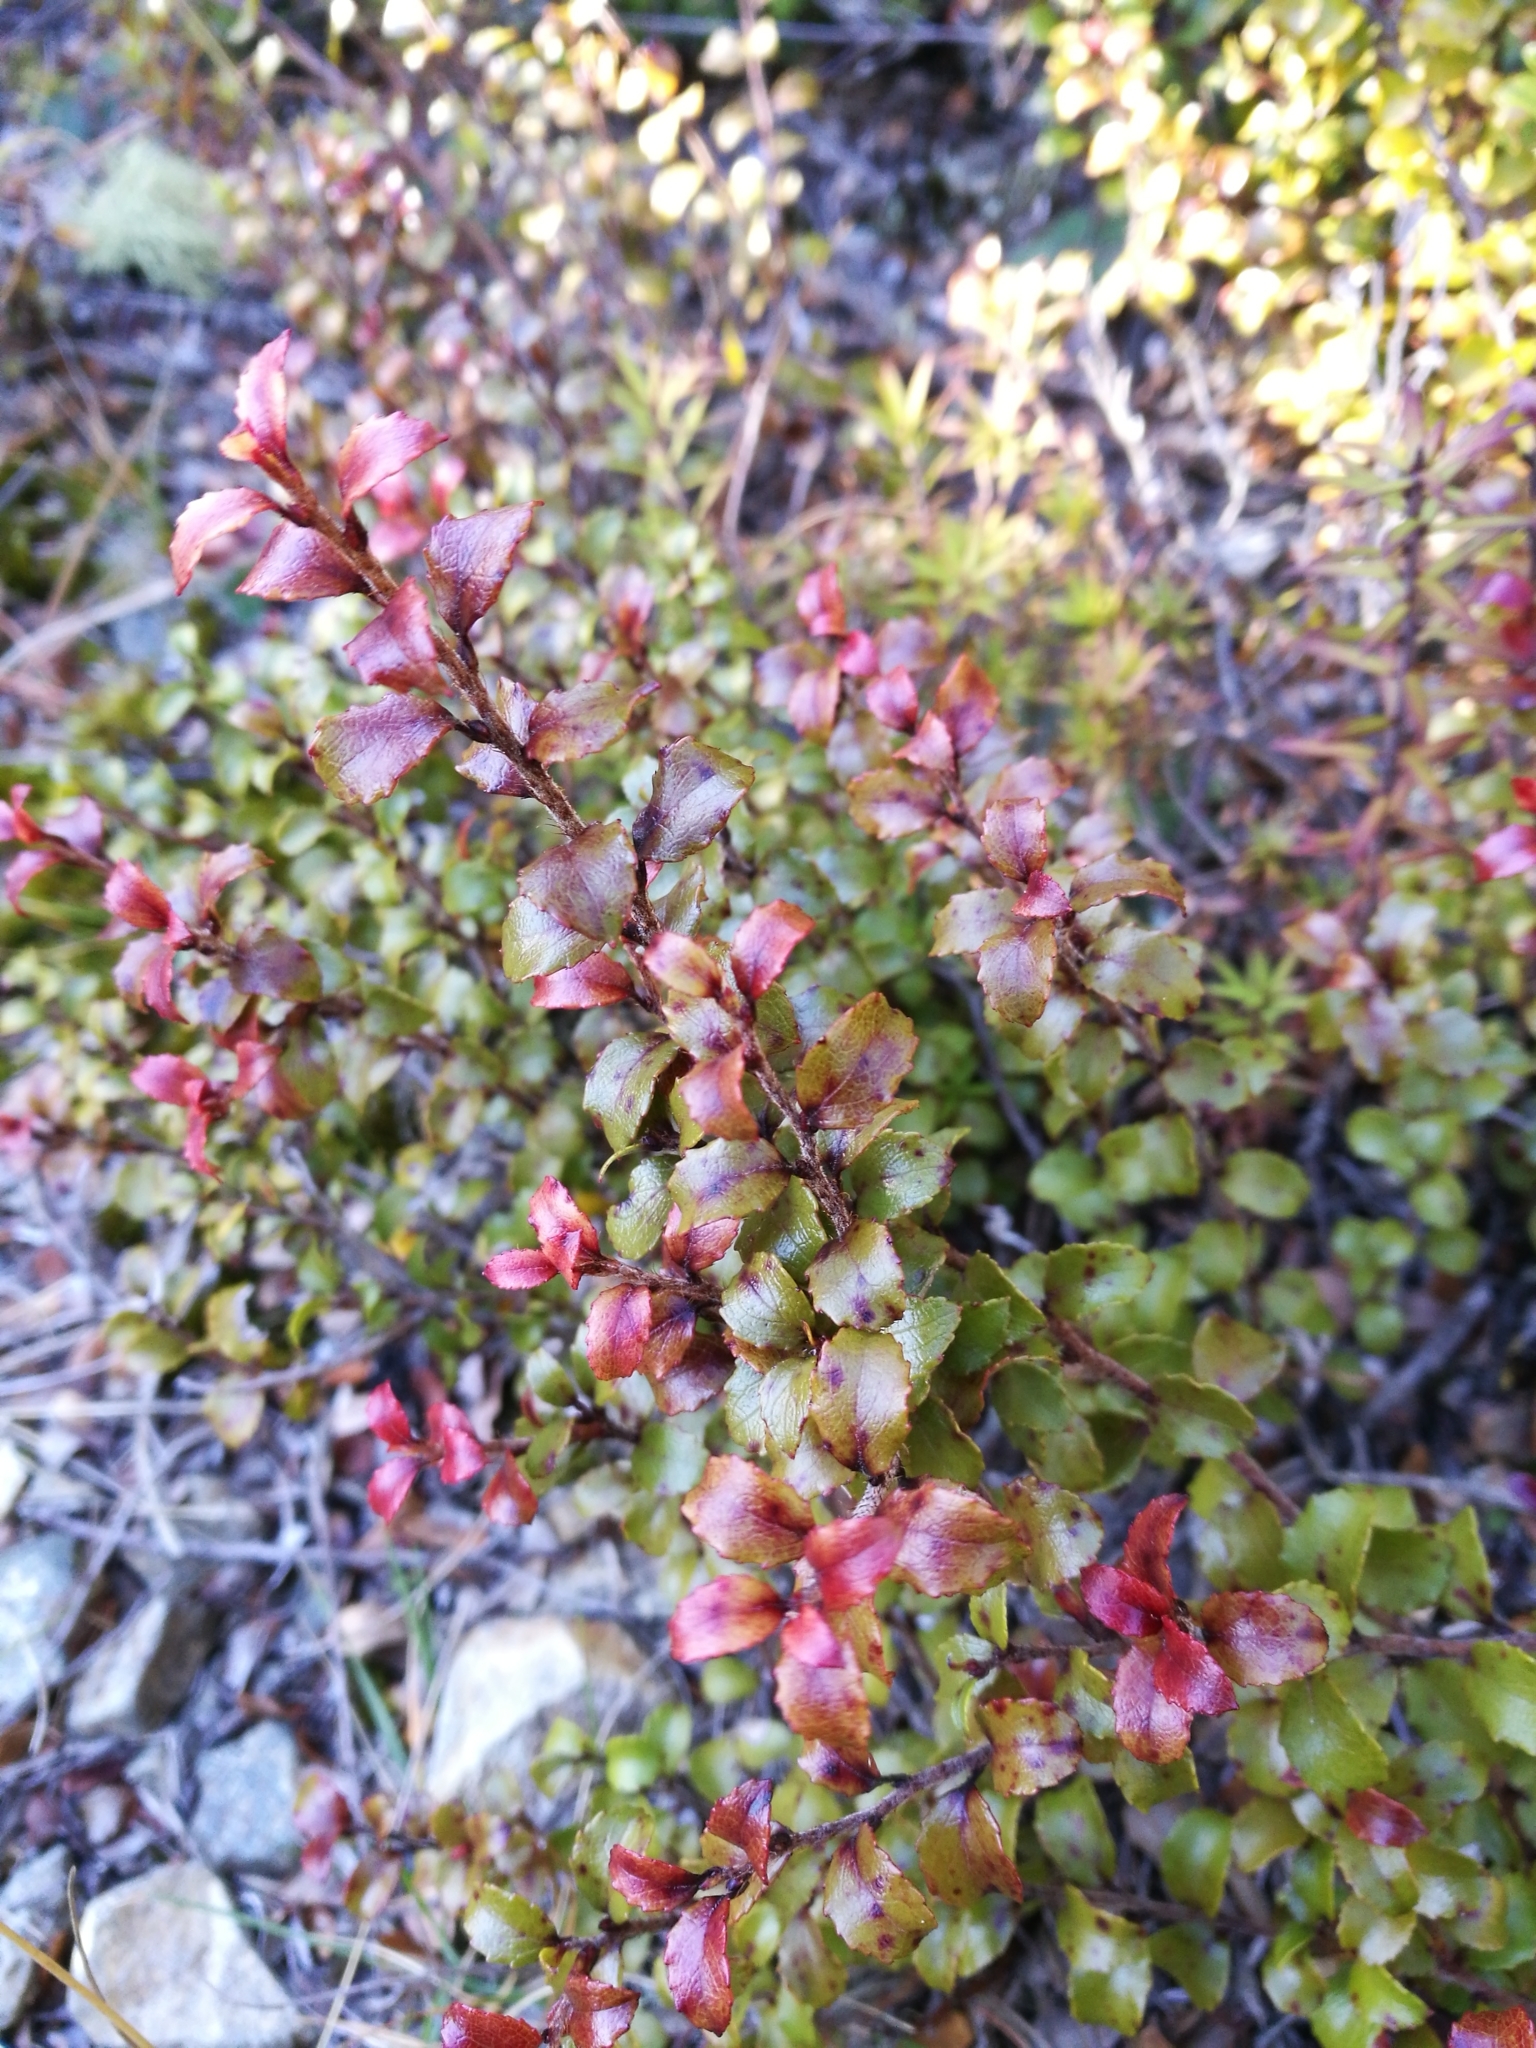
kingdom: Plantae
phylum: Tracheophyta
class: Magnoliopsida
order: Ericales
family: Ericaceae
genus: Gaultheria
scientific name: Gaultheria antipoda
